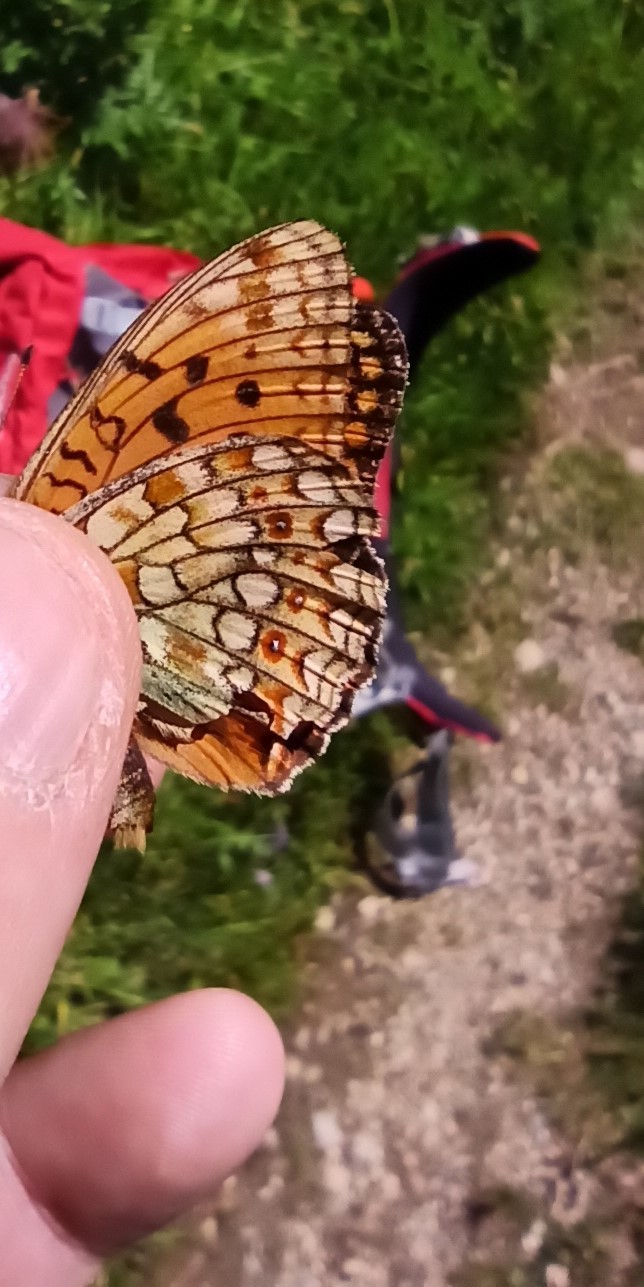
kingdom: Animalia
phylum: Arthropoda
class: Insecta
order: Lepidoptera
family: Nymphalidae
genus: Fabriciana
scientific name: Fabriciana niobe
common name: Niobe fritillary
